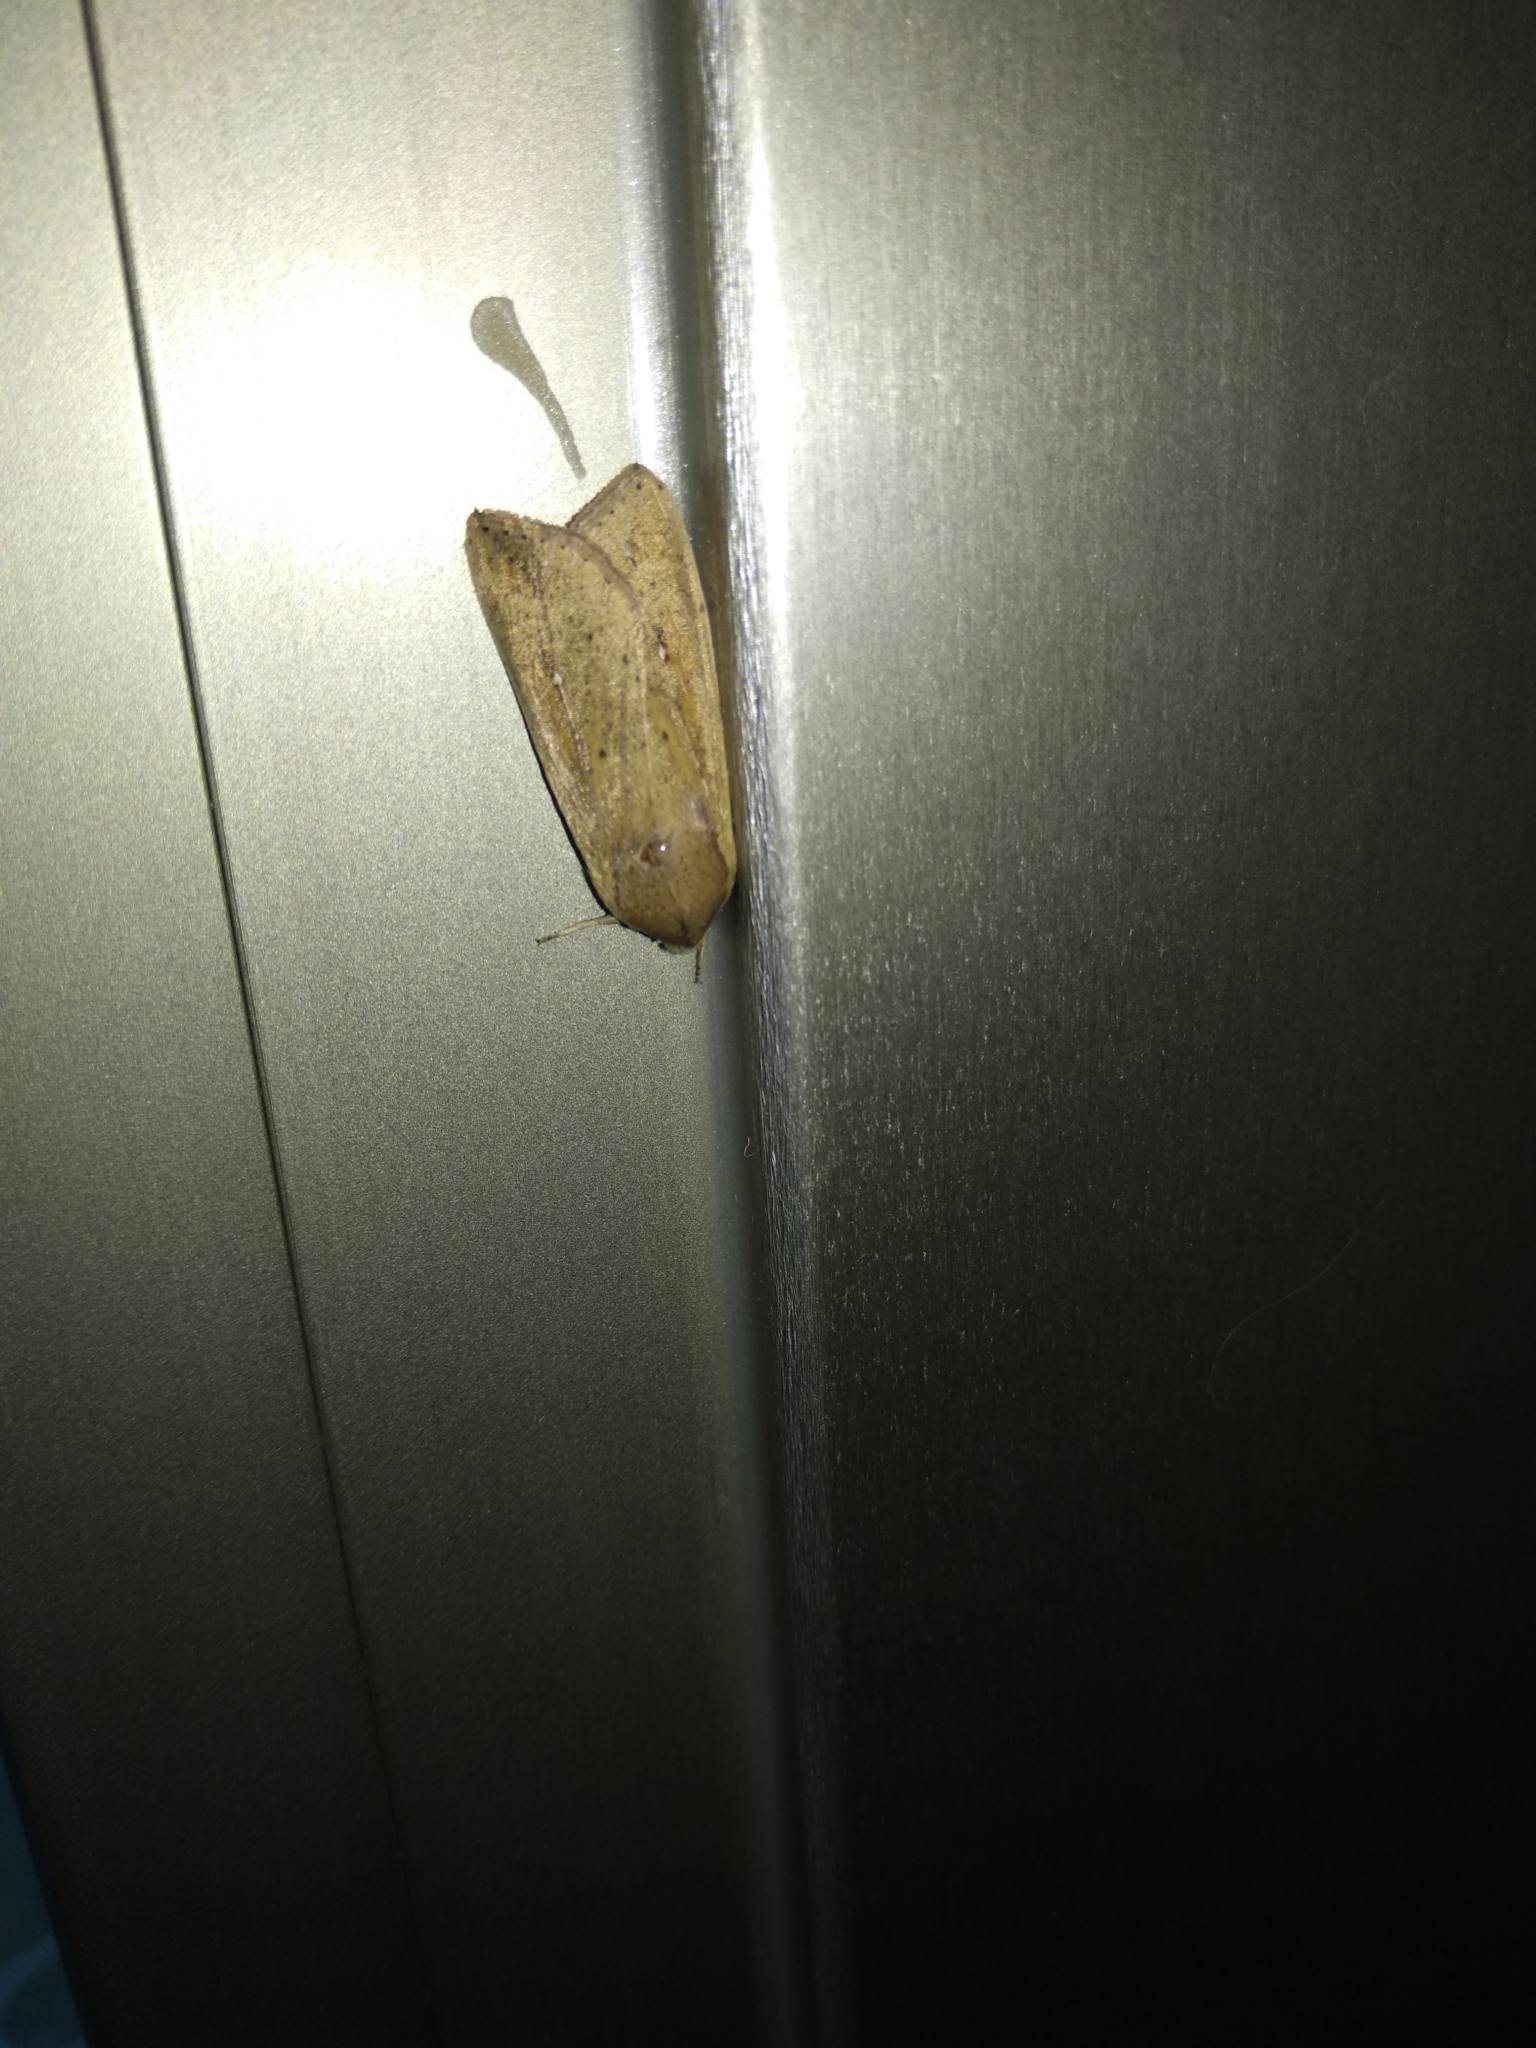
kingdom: Animalia
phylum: Arthropoda
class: Insecta
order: Lepidoptera
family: Noctuidae
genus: Mythimna
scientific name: Mythimna unipuncta
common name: White-speck
